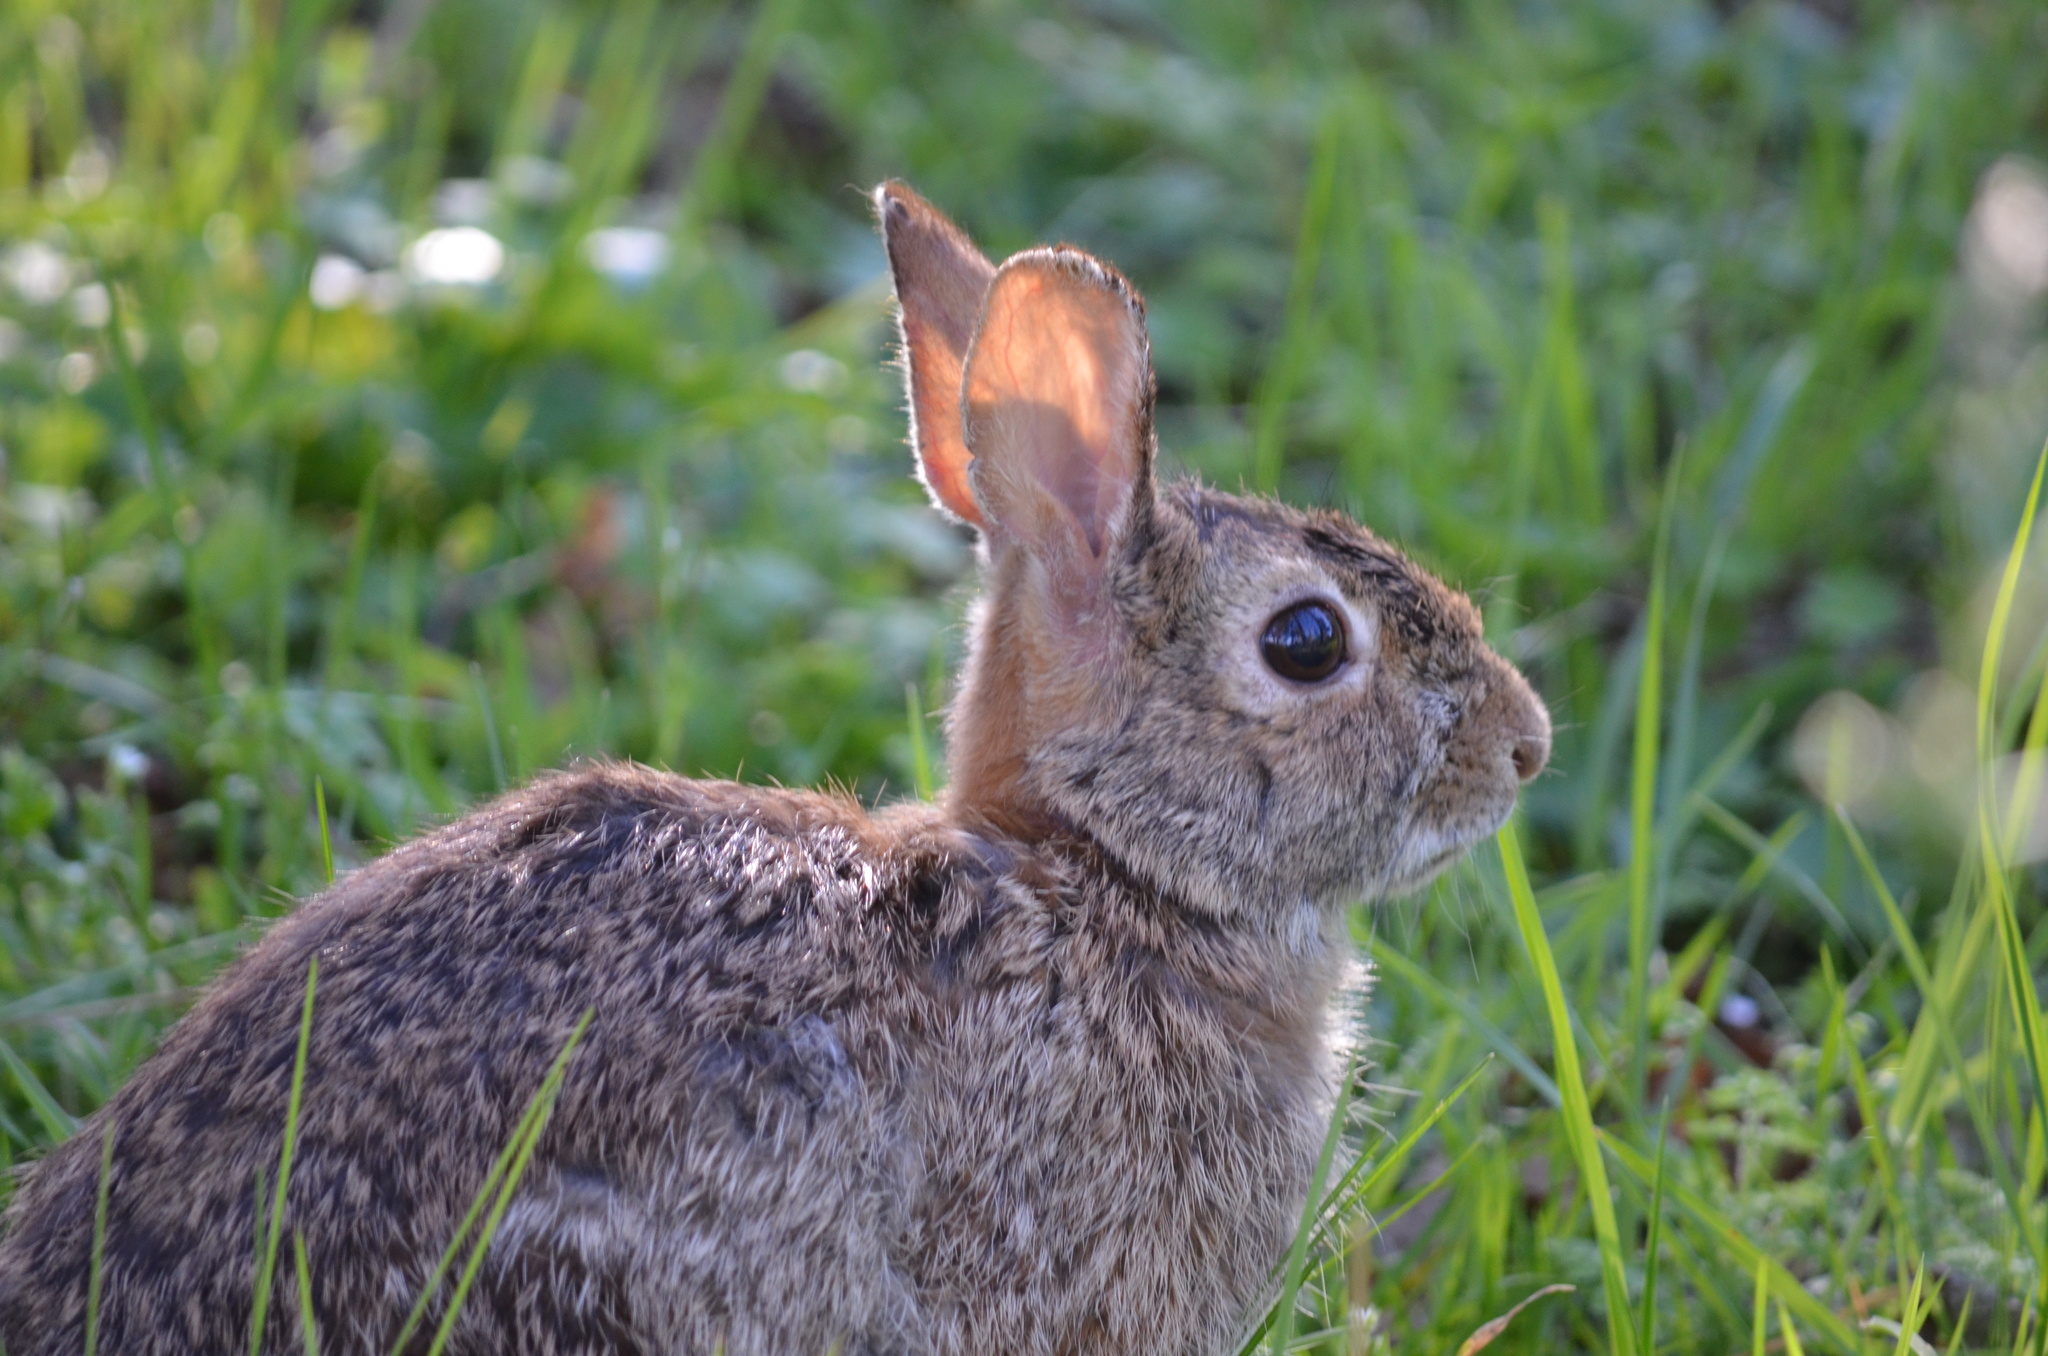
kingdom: Animalia
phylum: Chordata
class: Mammalia
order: Lagomorpha
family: Leporidae
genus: Sylvilagus
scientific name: Sylvilagus floridanus
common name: Eastern cottontail
